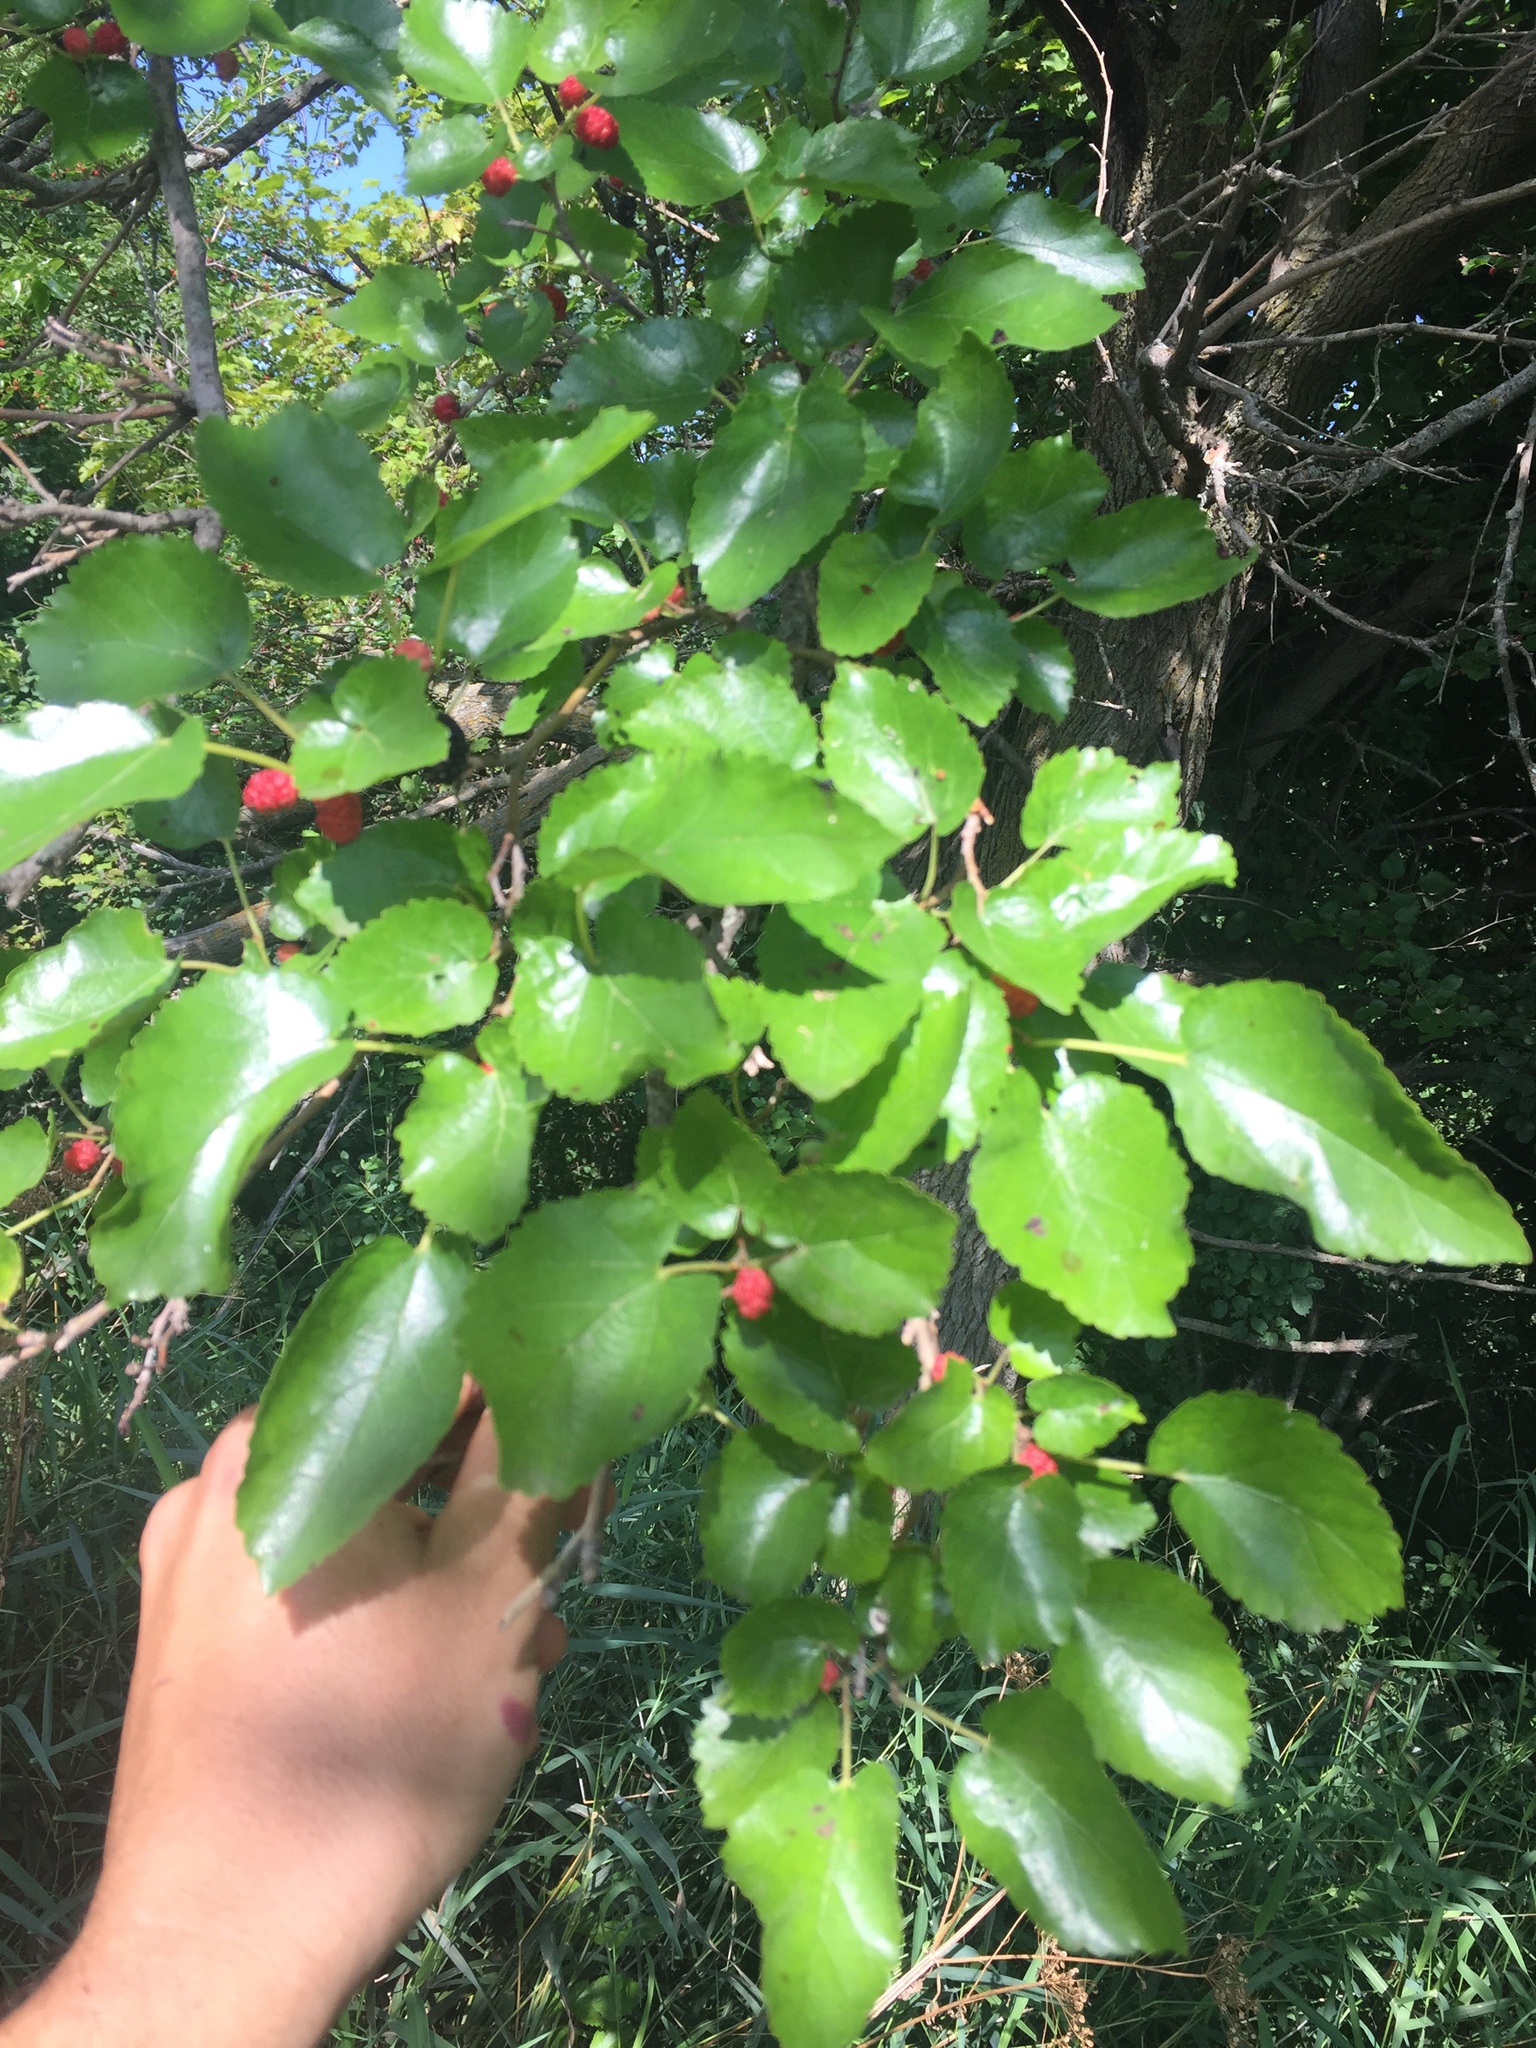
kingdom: Plantae
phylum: Tracheophyta
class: Magnoliopsida
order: Rosales
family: Moraceae
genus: Morus
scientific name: Morus alba
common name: White mulberry
